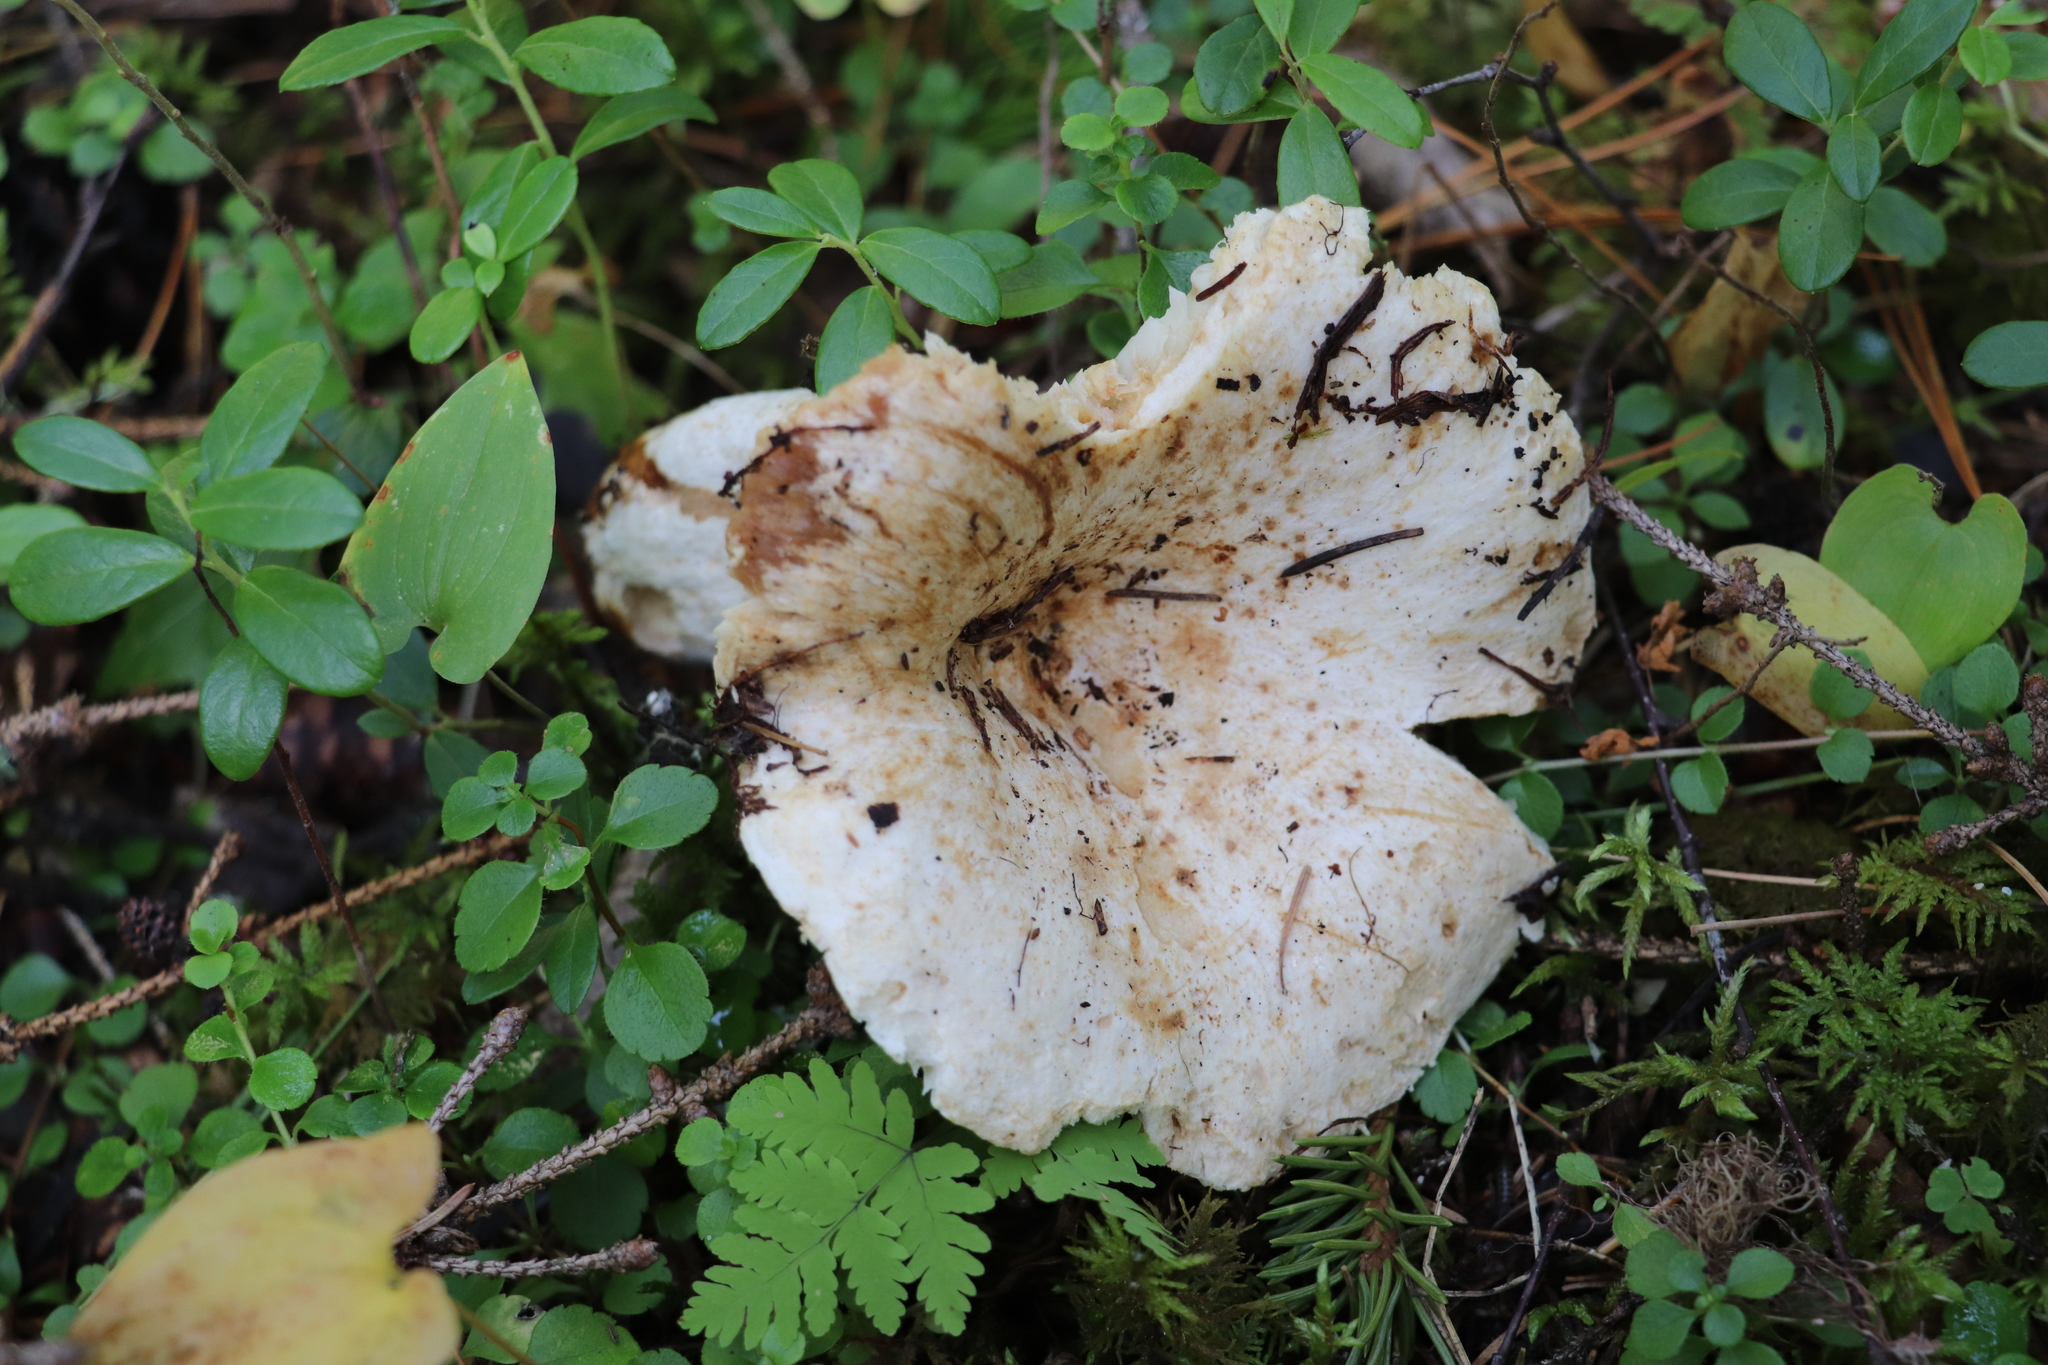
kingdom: Fungi
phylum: Basidiomycota
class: Agaricomycetes
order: Russulales
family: Russulaceae
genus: Russula
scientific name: Russula delica
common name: Milk white brittlegill
